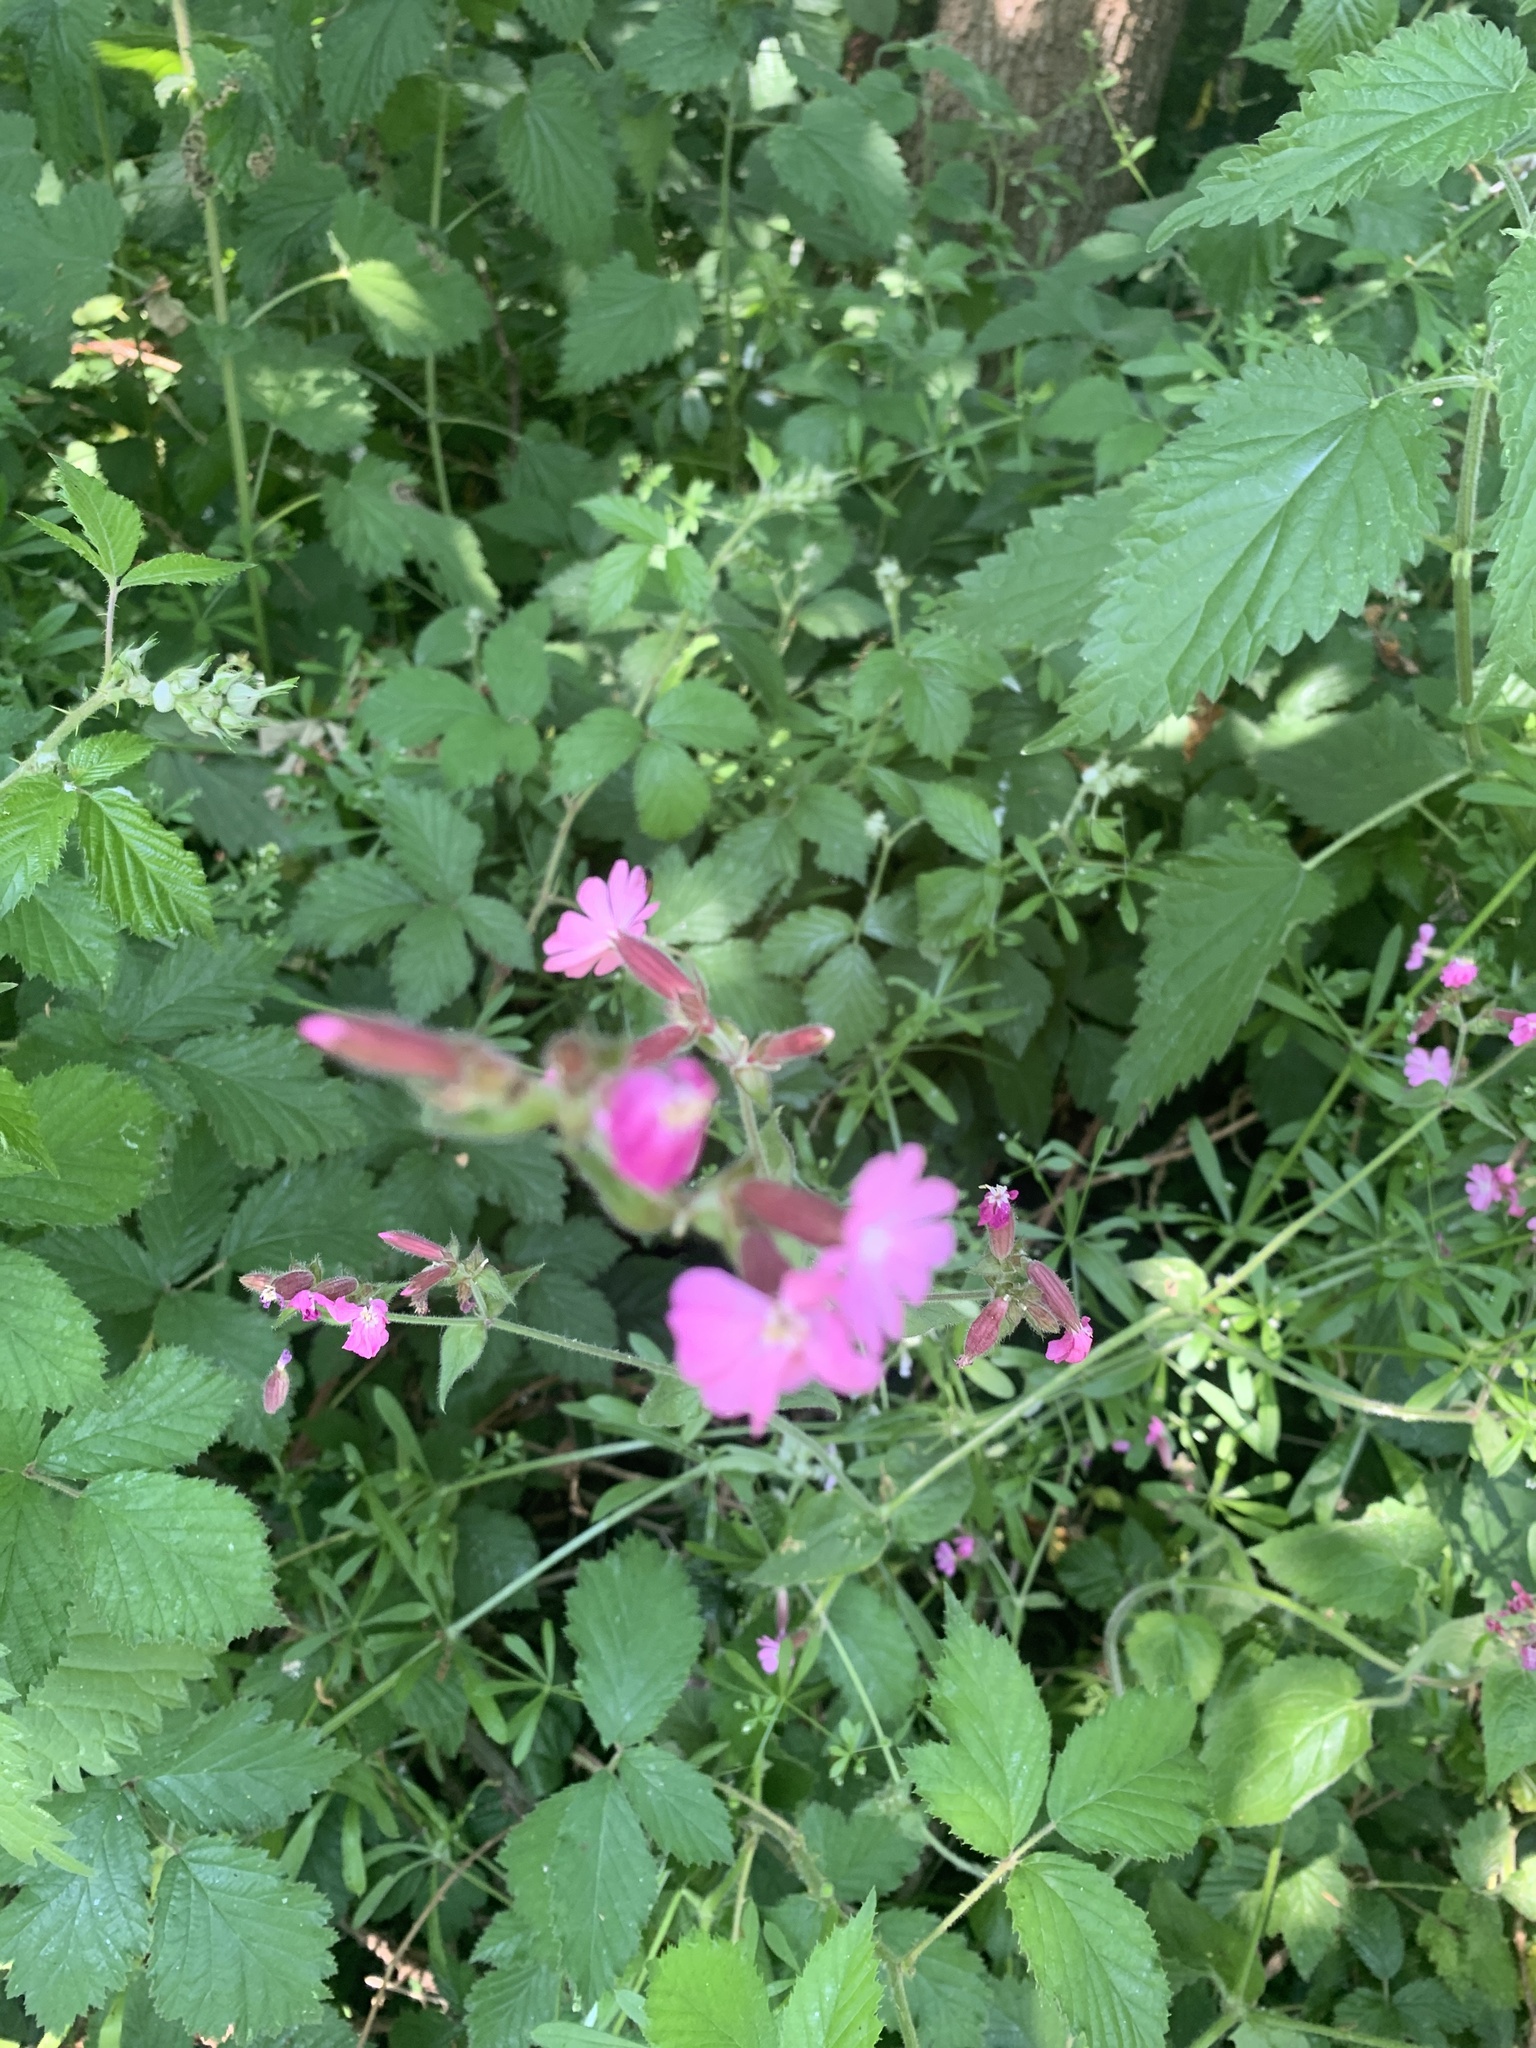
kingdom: Plantae
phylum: Tracheophyta
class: Magnoliopsida
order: Caryophyllales
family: Caryophyllaceae
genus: Silene
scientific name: Silene dioica
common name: Red campion
